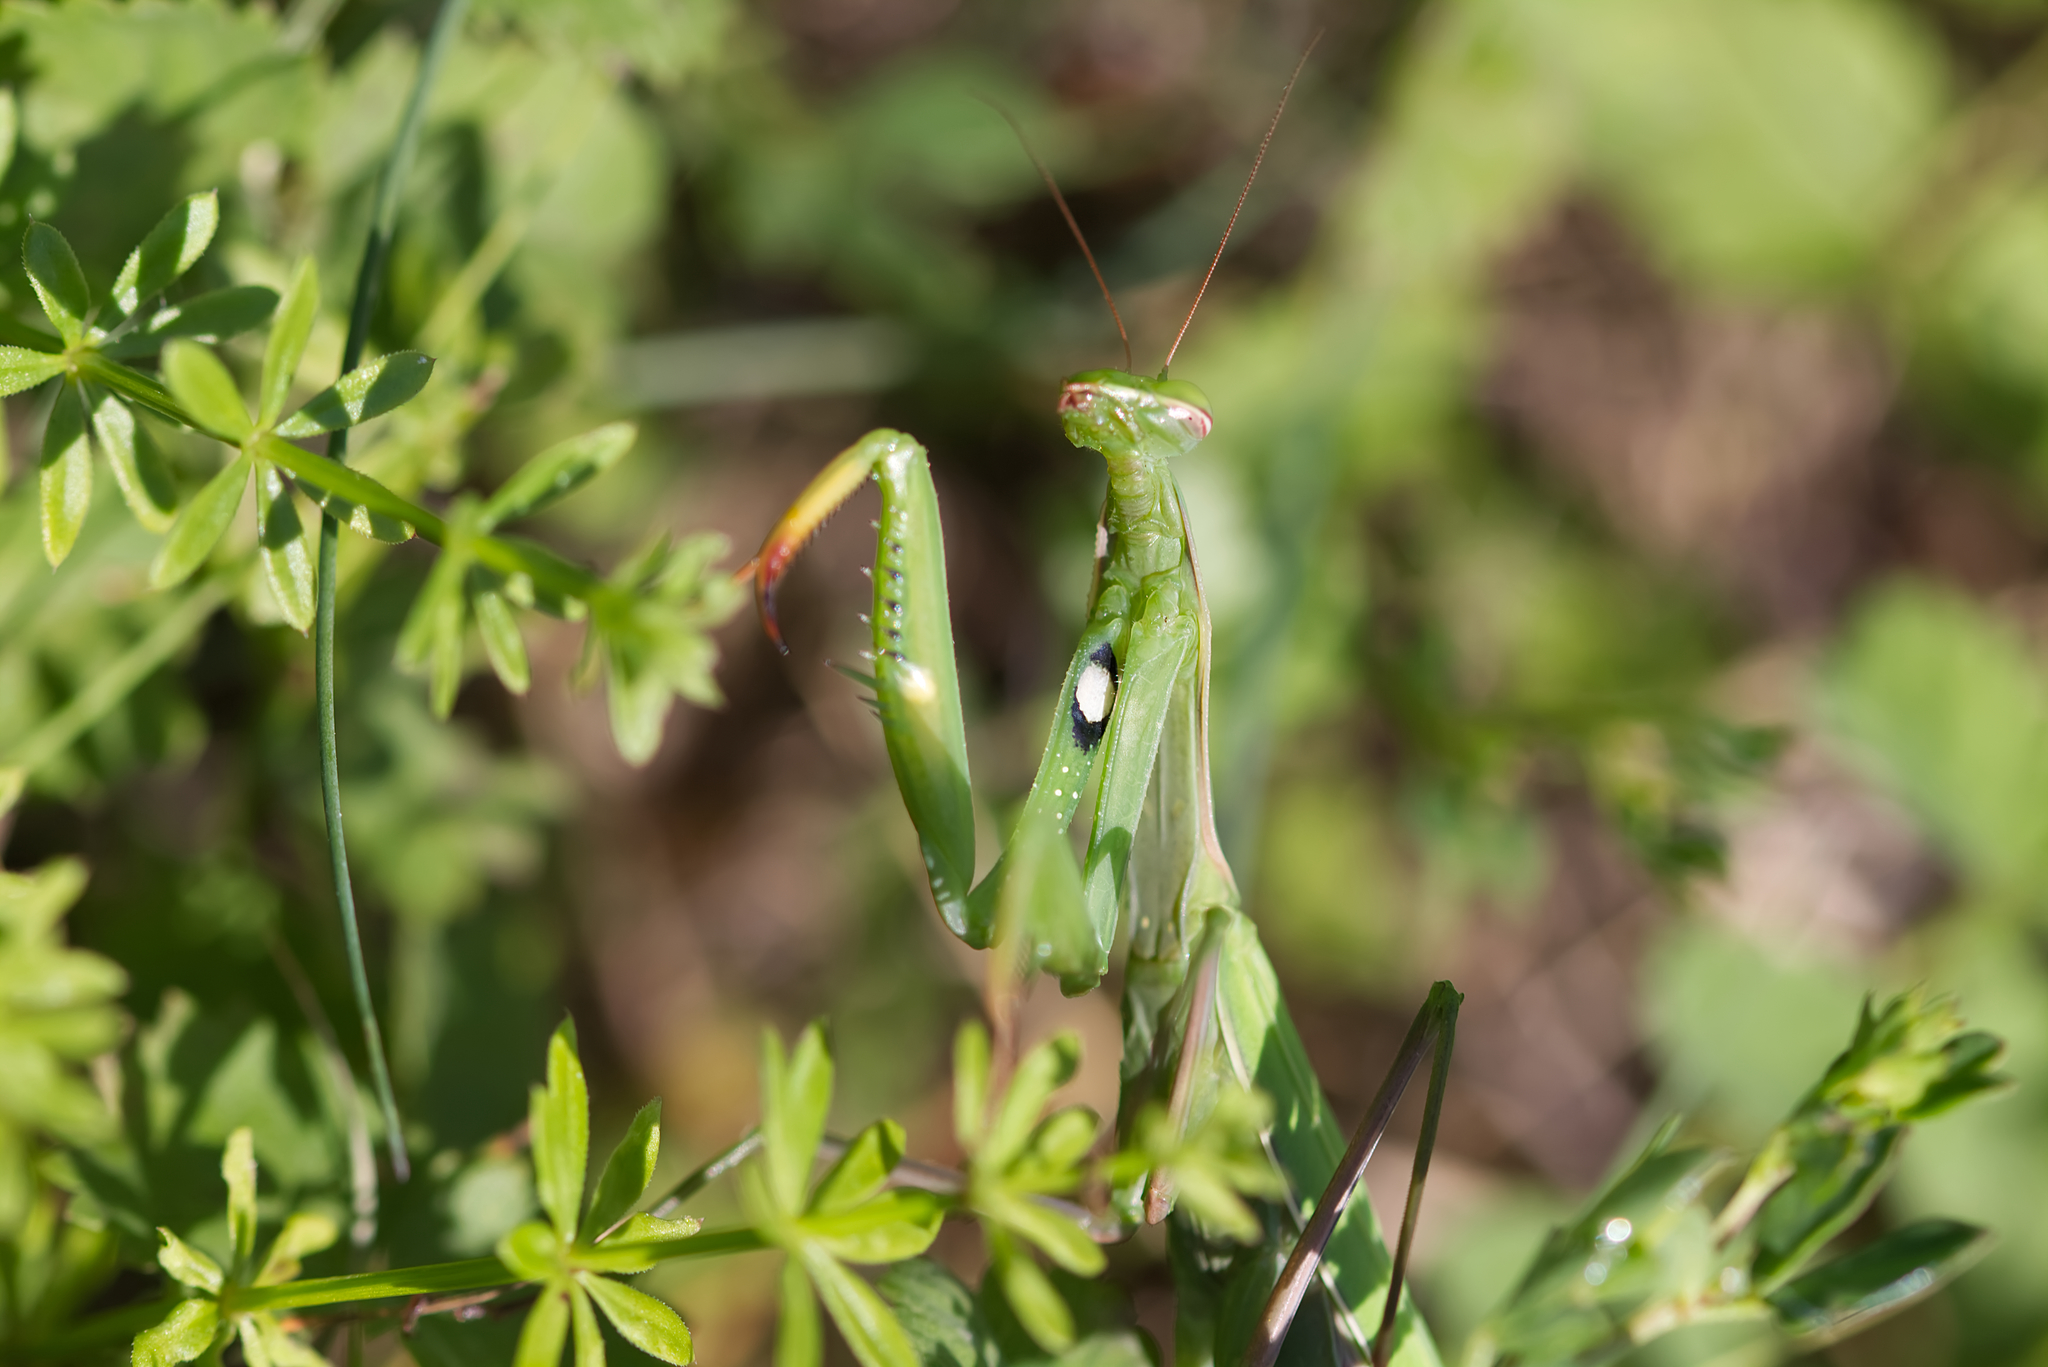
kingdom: Animalia
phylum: Arthropoda
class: Insecta
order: Mantodea
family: Mantidae
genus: Mantis
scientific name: Mantis religiosa
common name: Praying mantis
